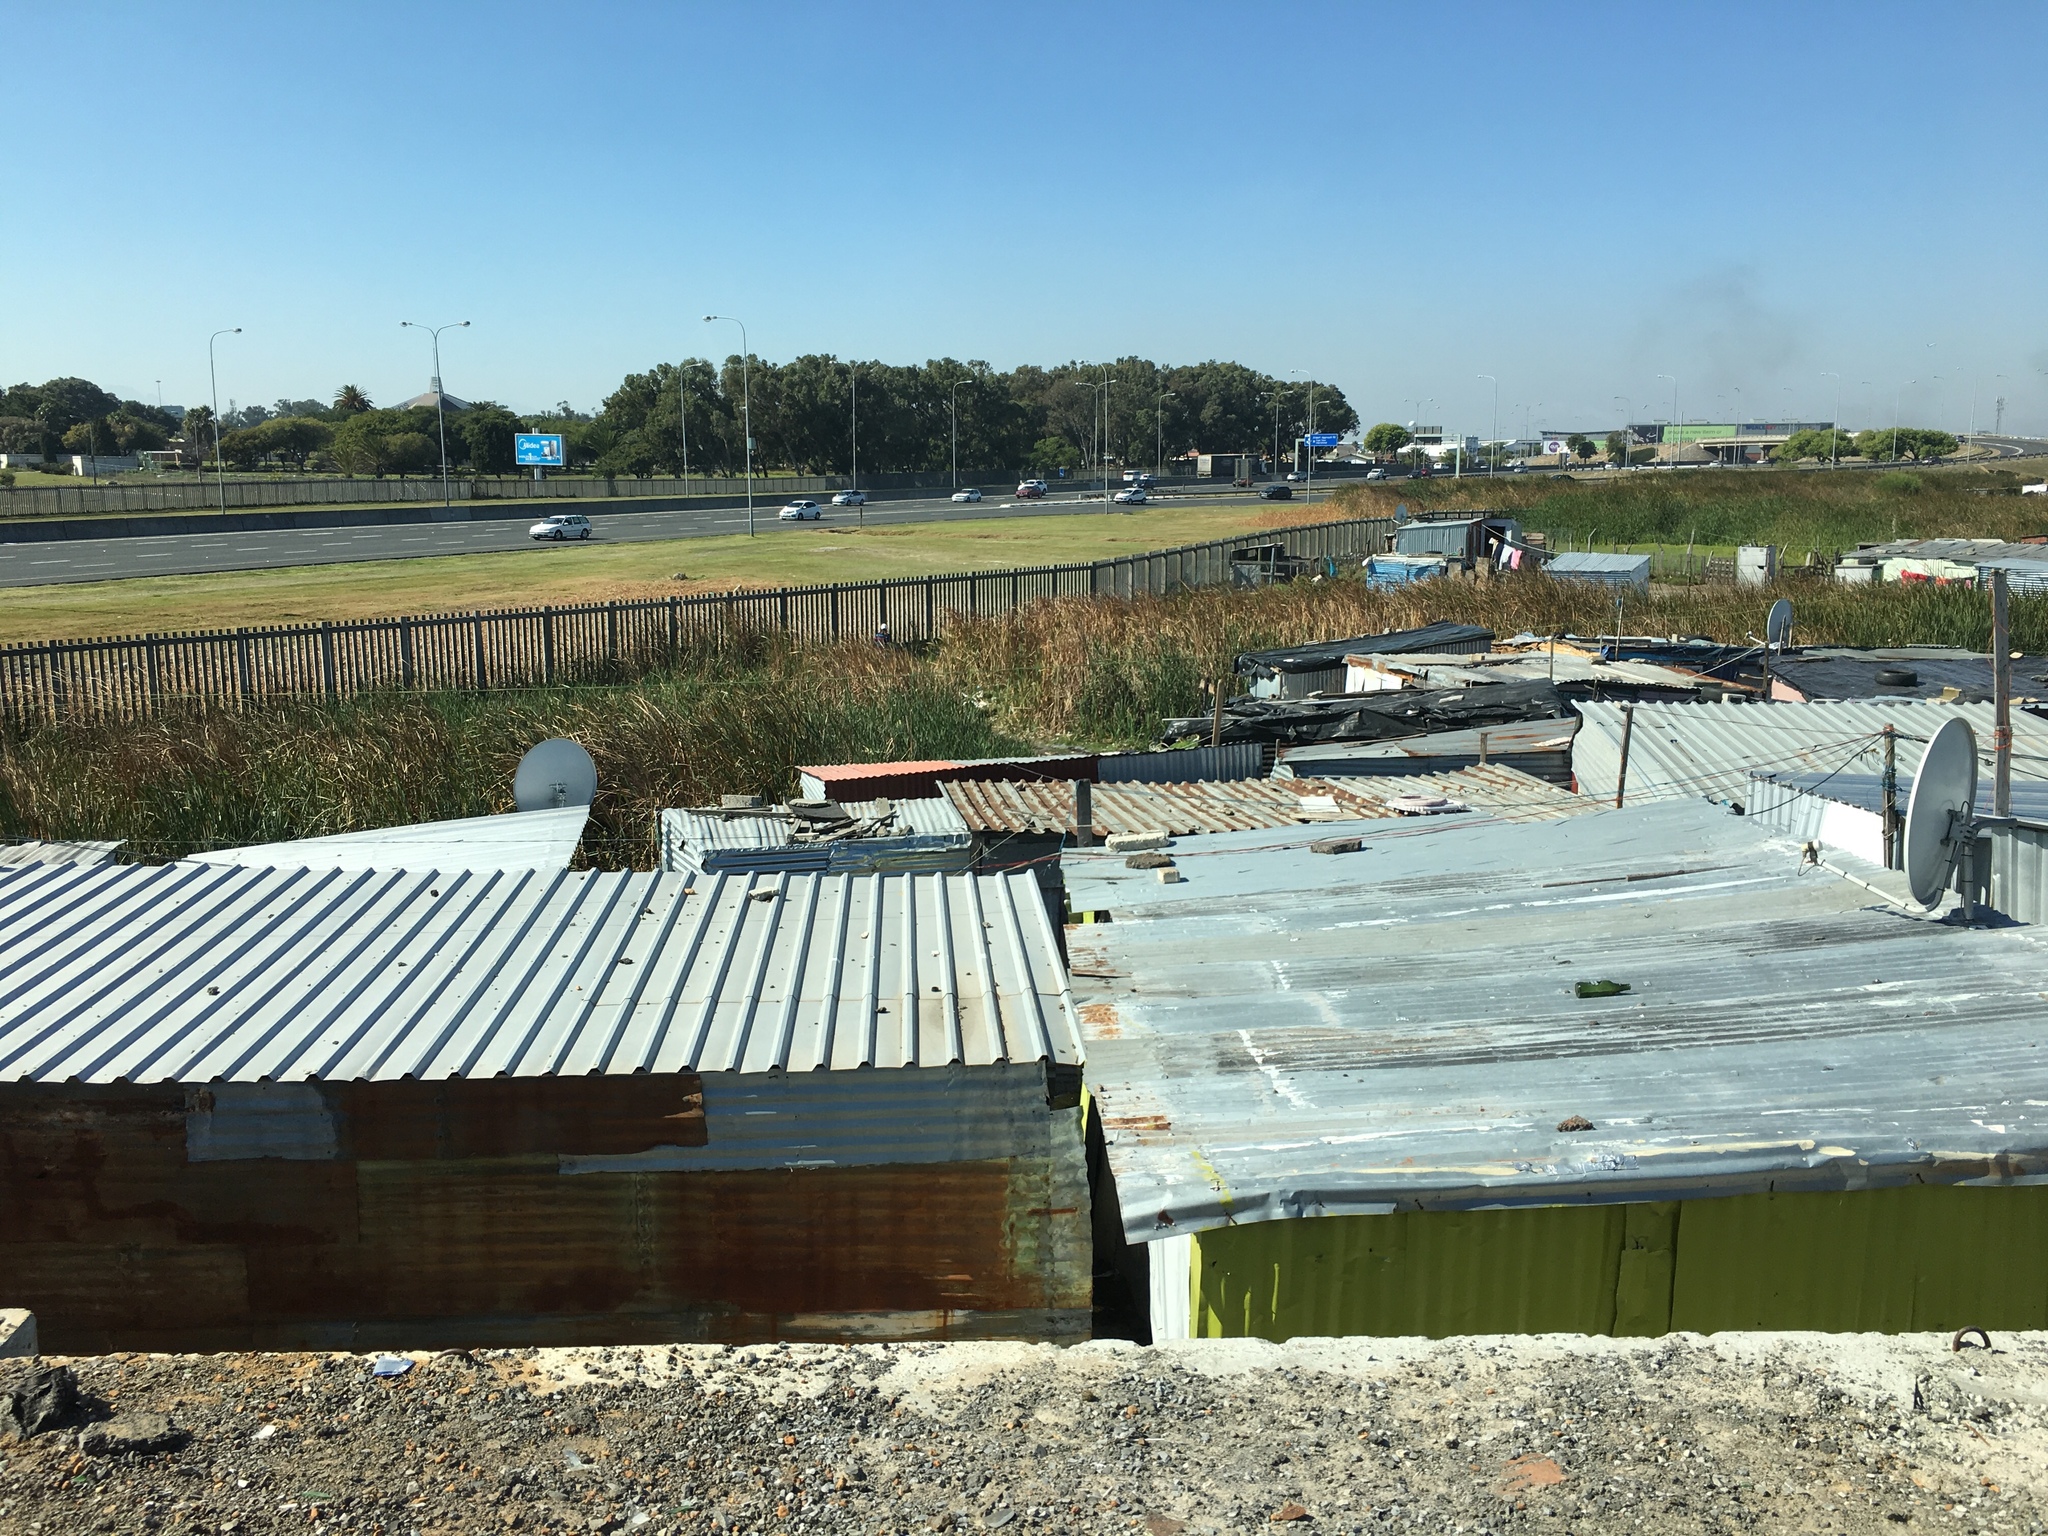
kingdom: Plantae
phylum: Tracheophyta
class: Liliopsida
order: Poales
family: Typhaceae
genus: Typha
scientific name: Typha capensis
